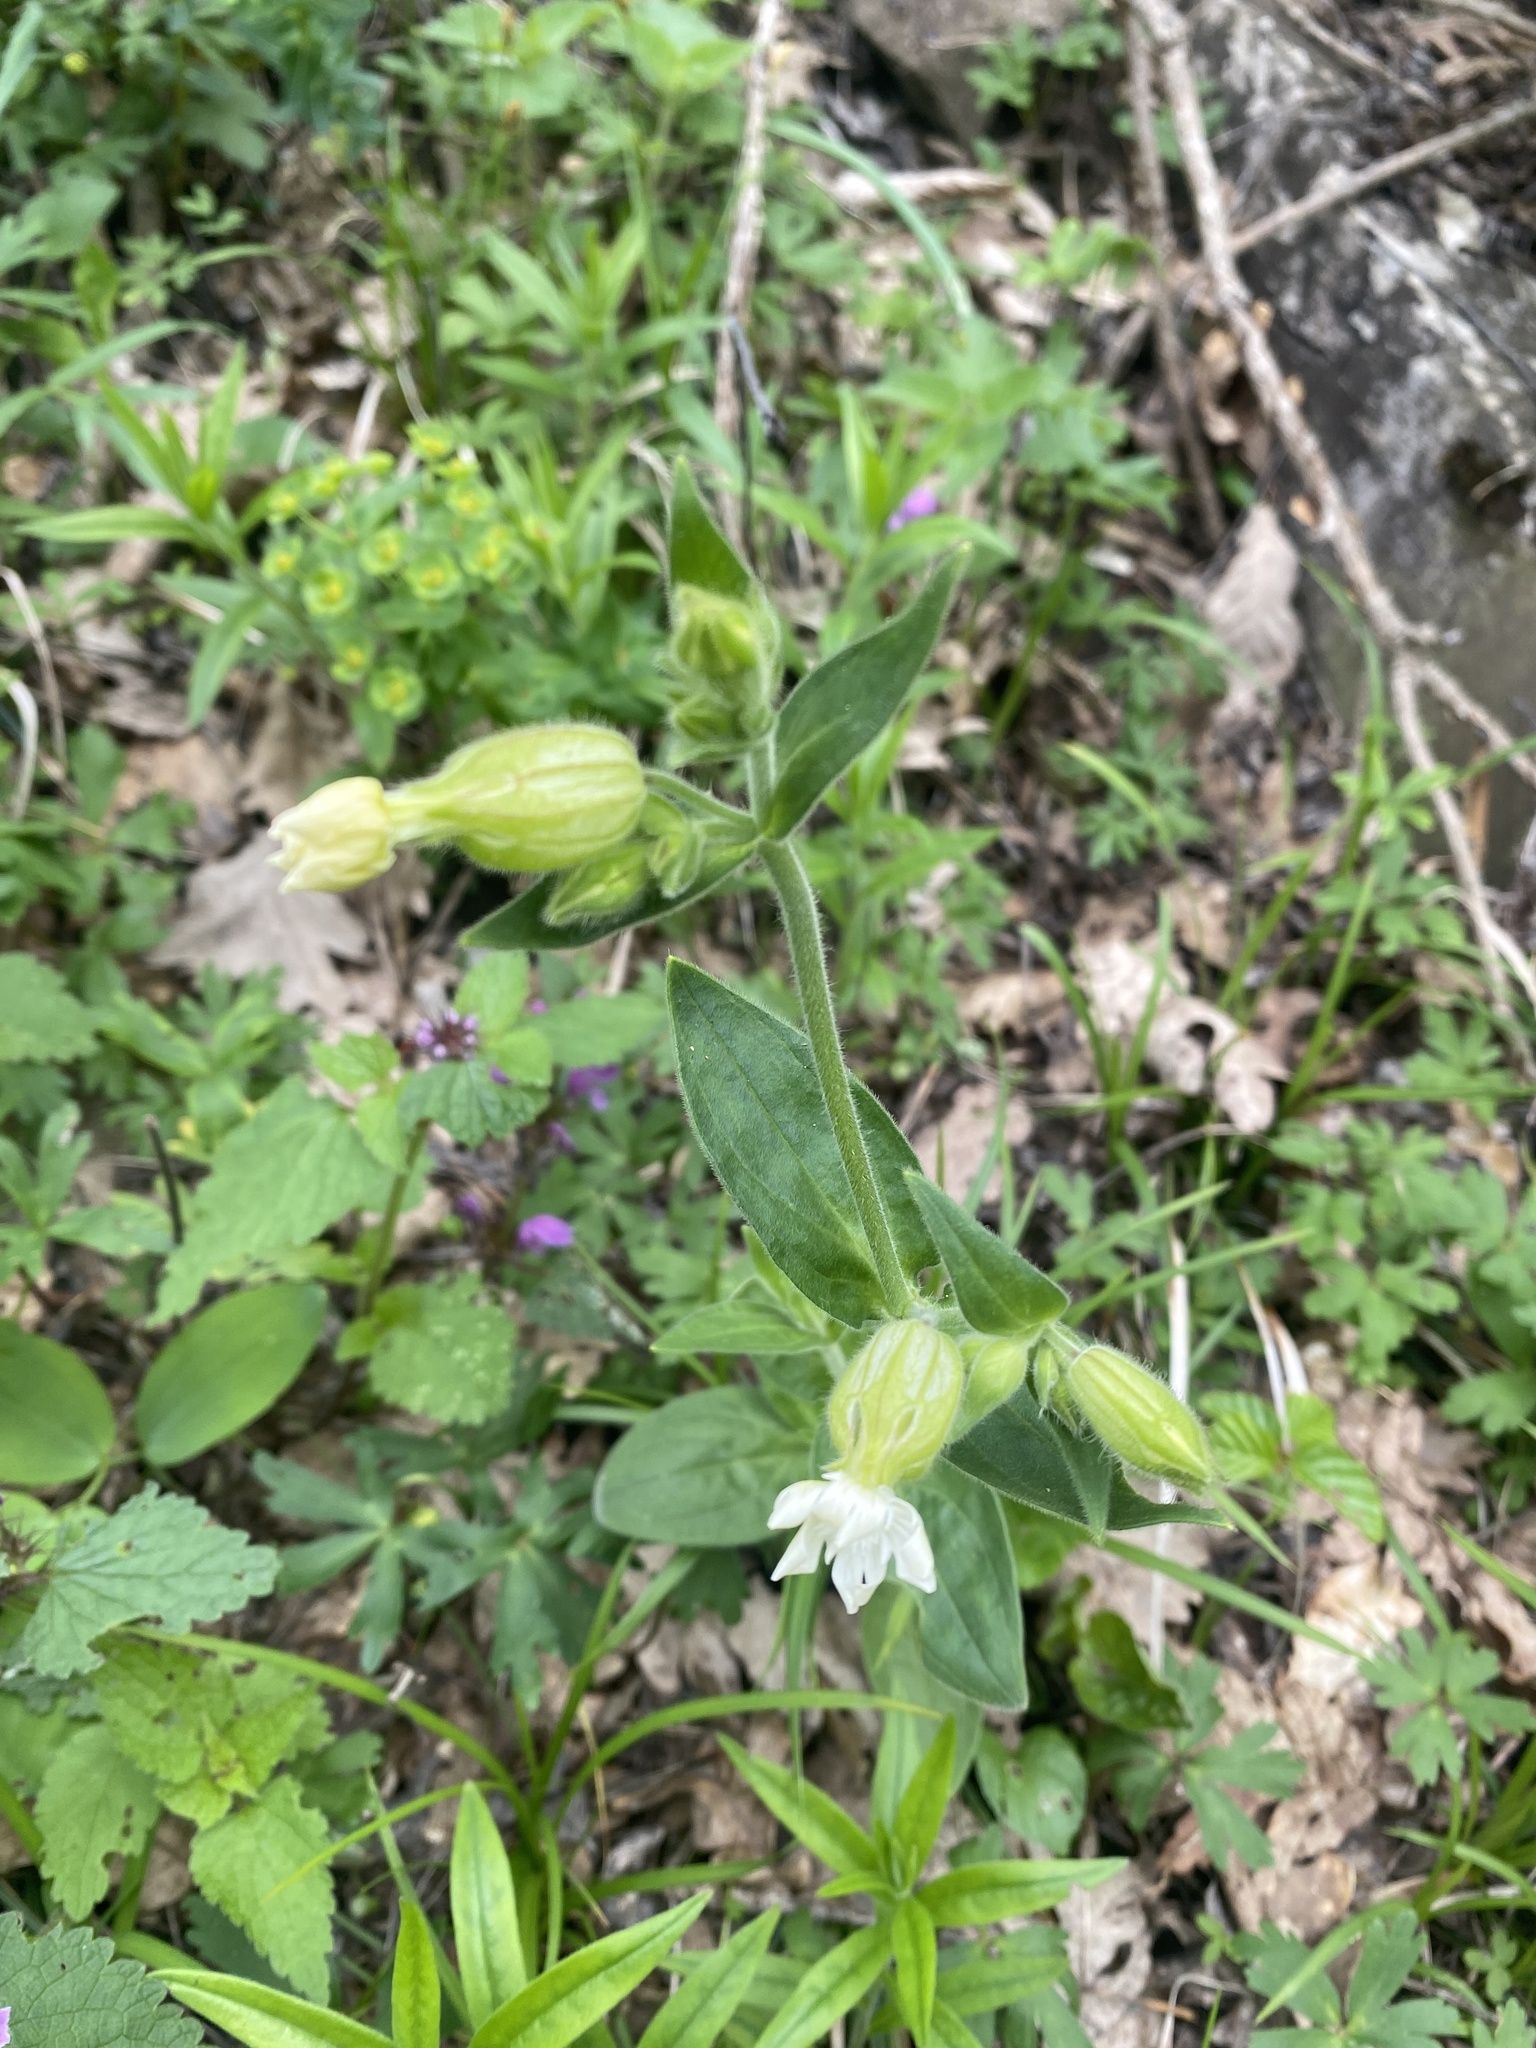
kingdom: Plantae
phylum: Tracheophyta
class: Magnoliopsida
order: Caryophyllales
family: Caryophyllaceae
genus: Silene
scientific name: Silene latifolia
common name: White campion
